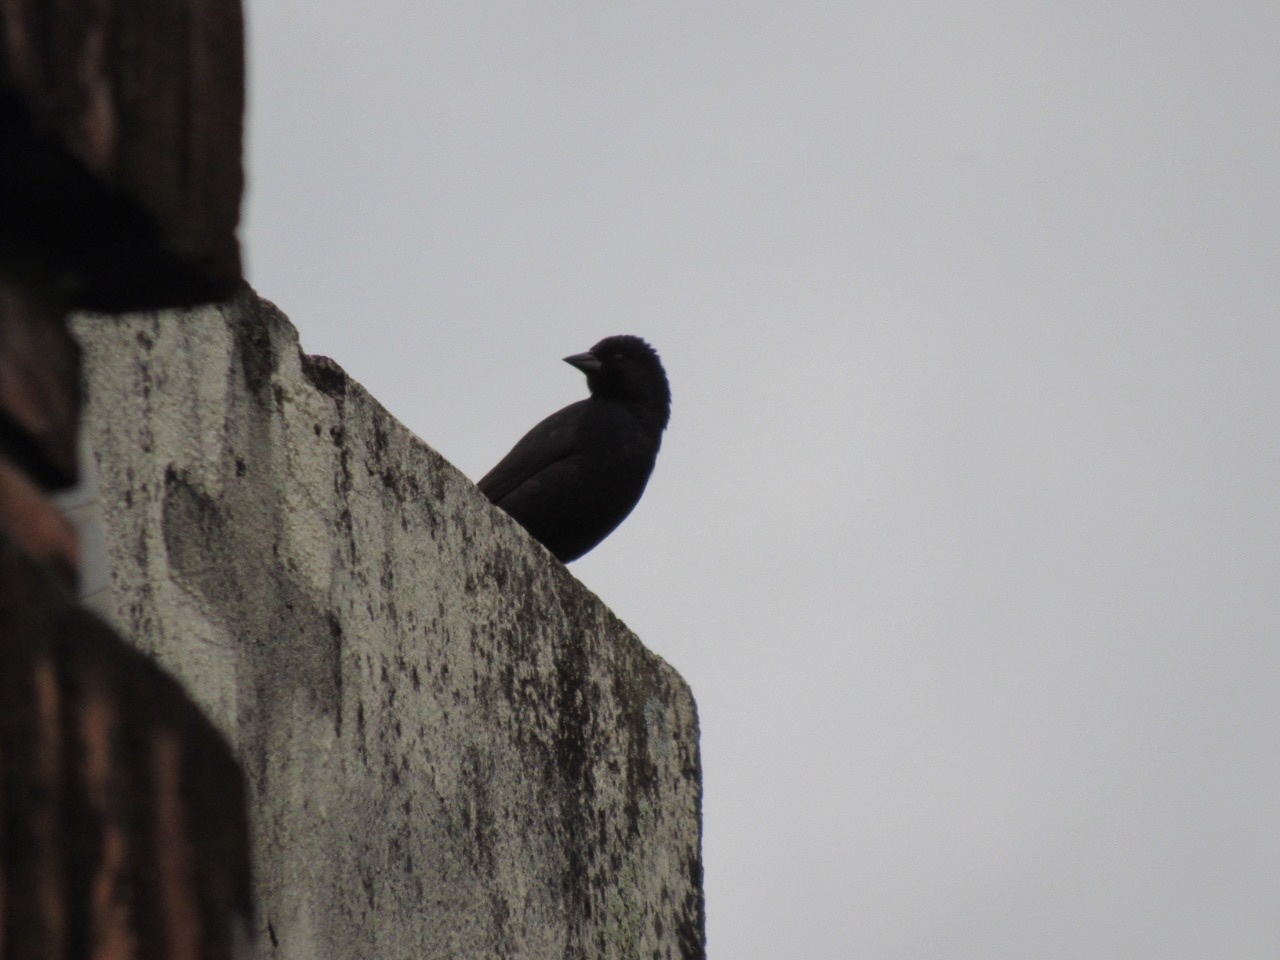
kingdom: Animalia
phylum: Chordata
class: Aves
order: Passeriformes
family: Icteridae
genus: Molothrus
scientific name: Molothrus bonariensis
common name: Shiny cowbird
